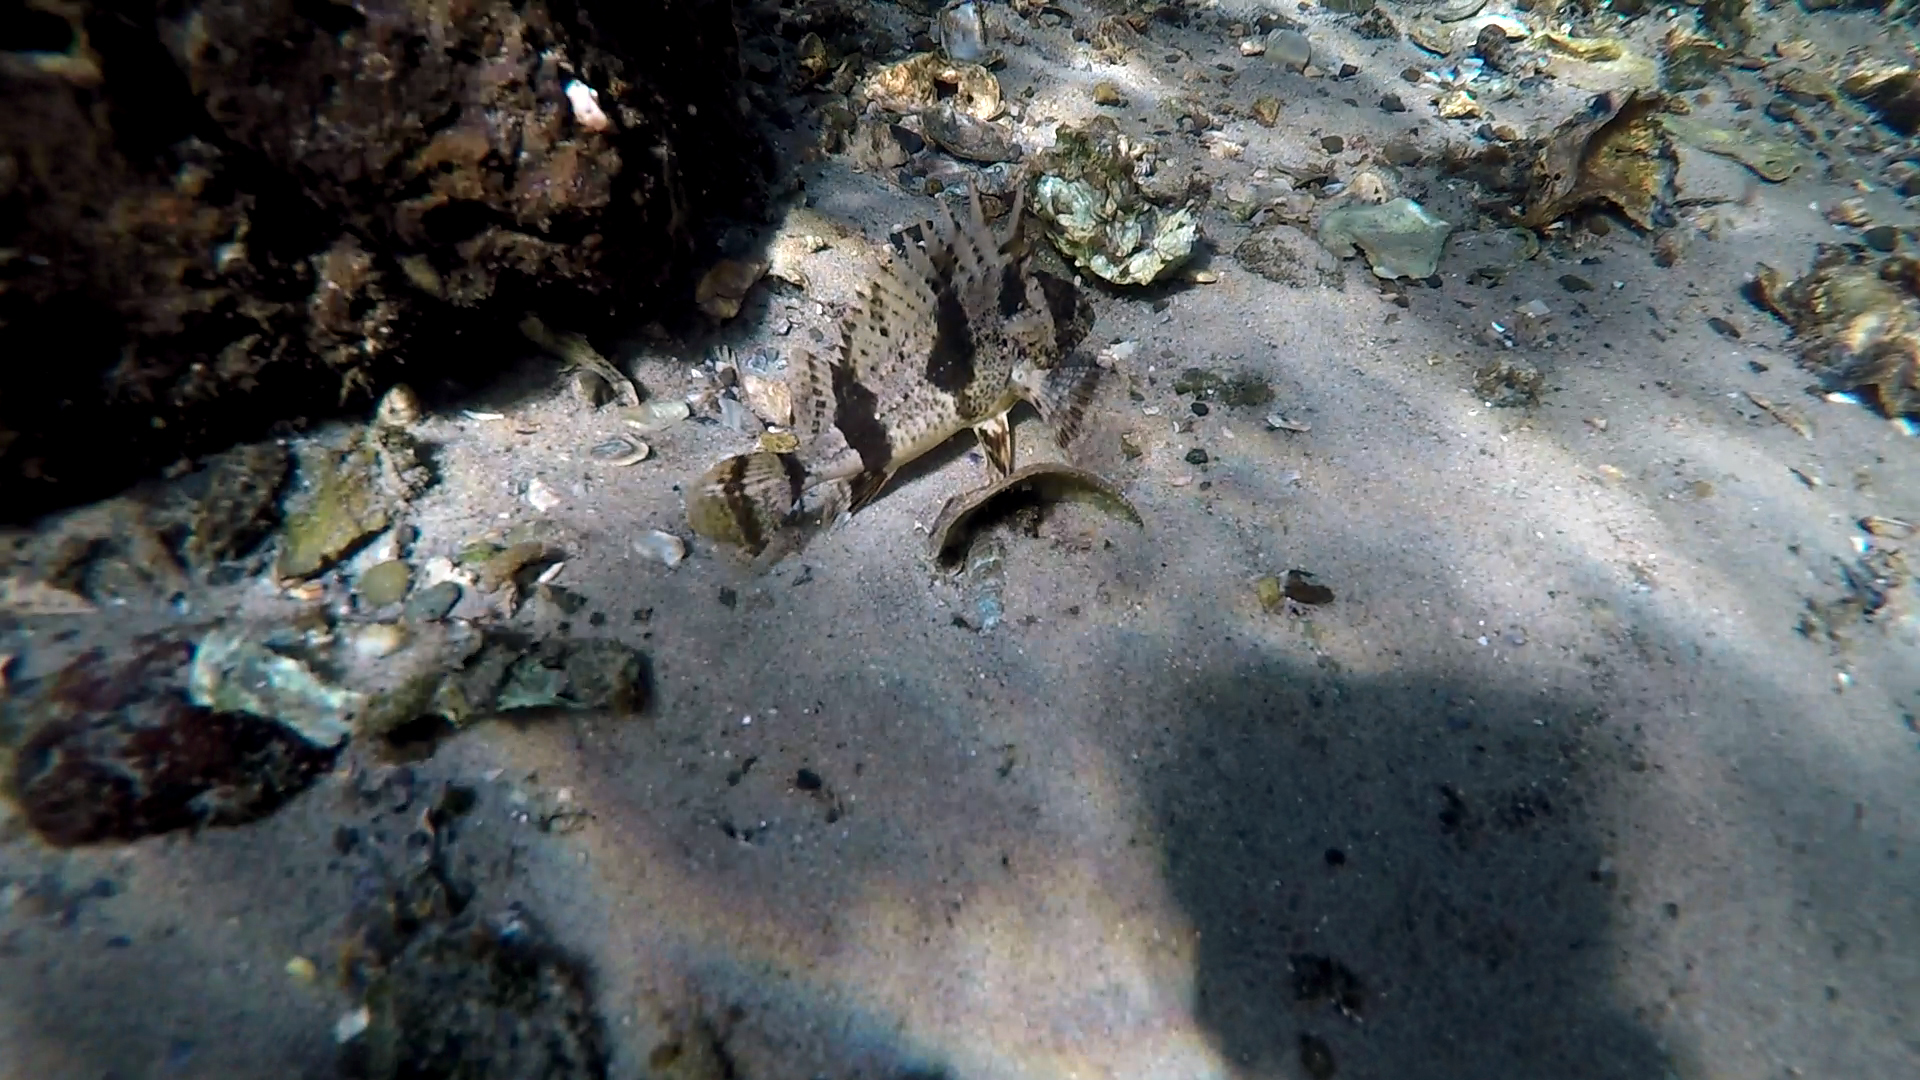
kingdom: Animalia
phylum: Chordata
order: Scorpaeniformes
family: Tetrarogidae
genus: Centropogon
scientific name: Centropogon australis
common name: Fortescue
